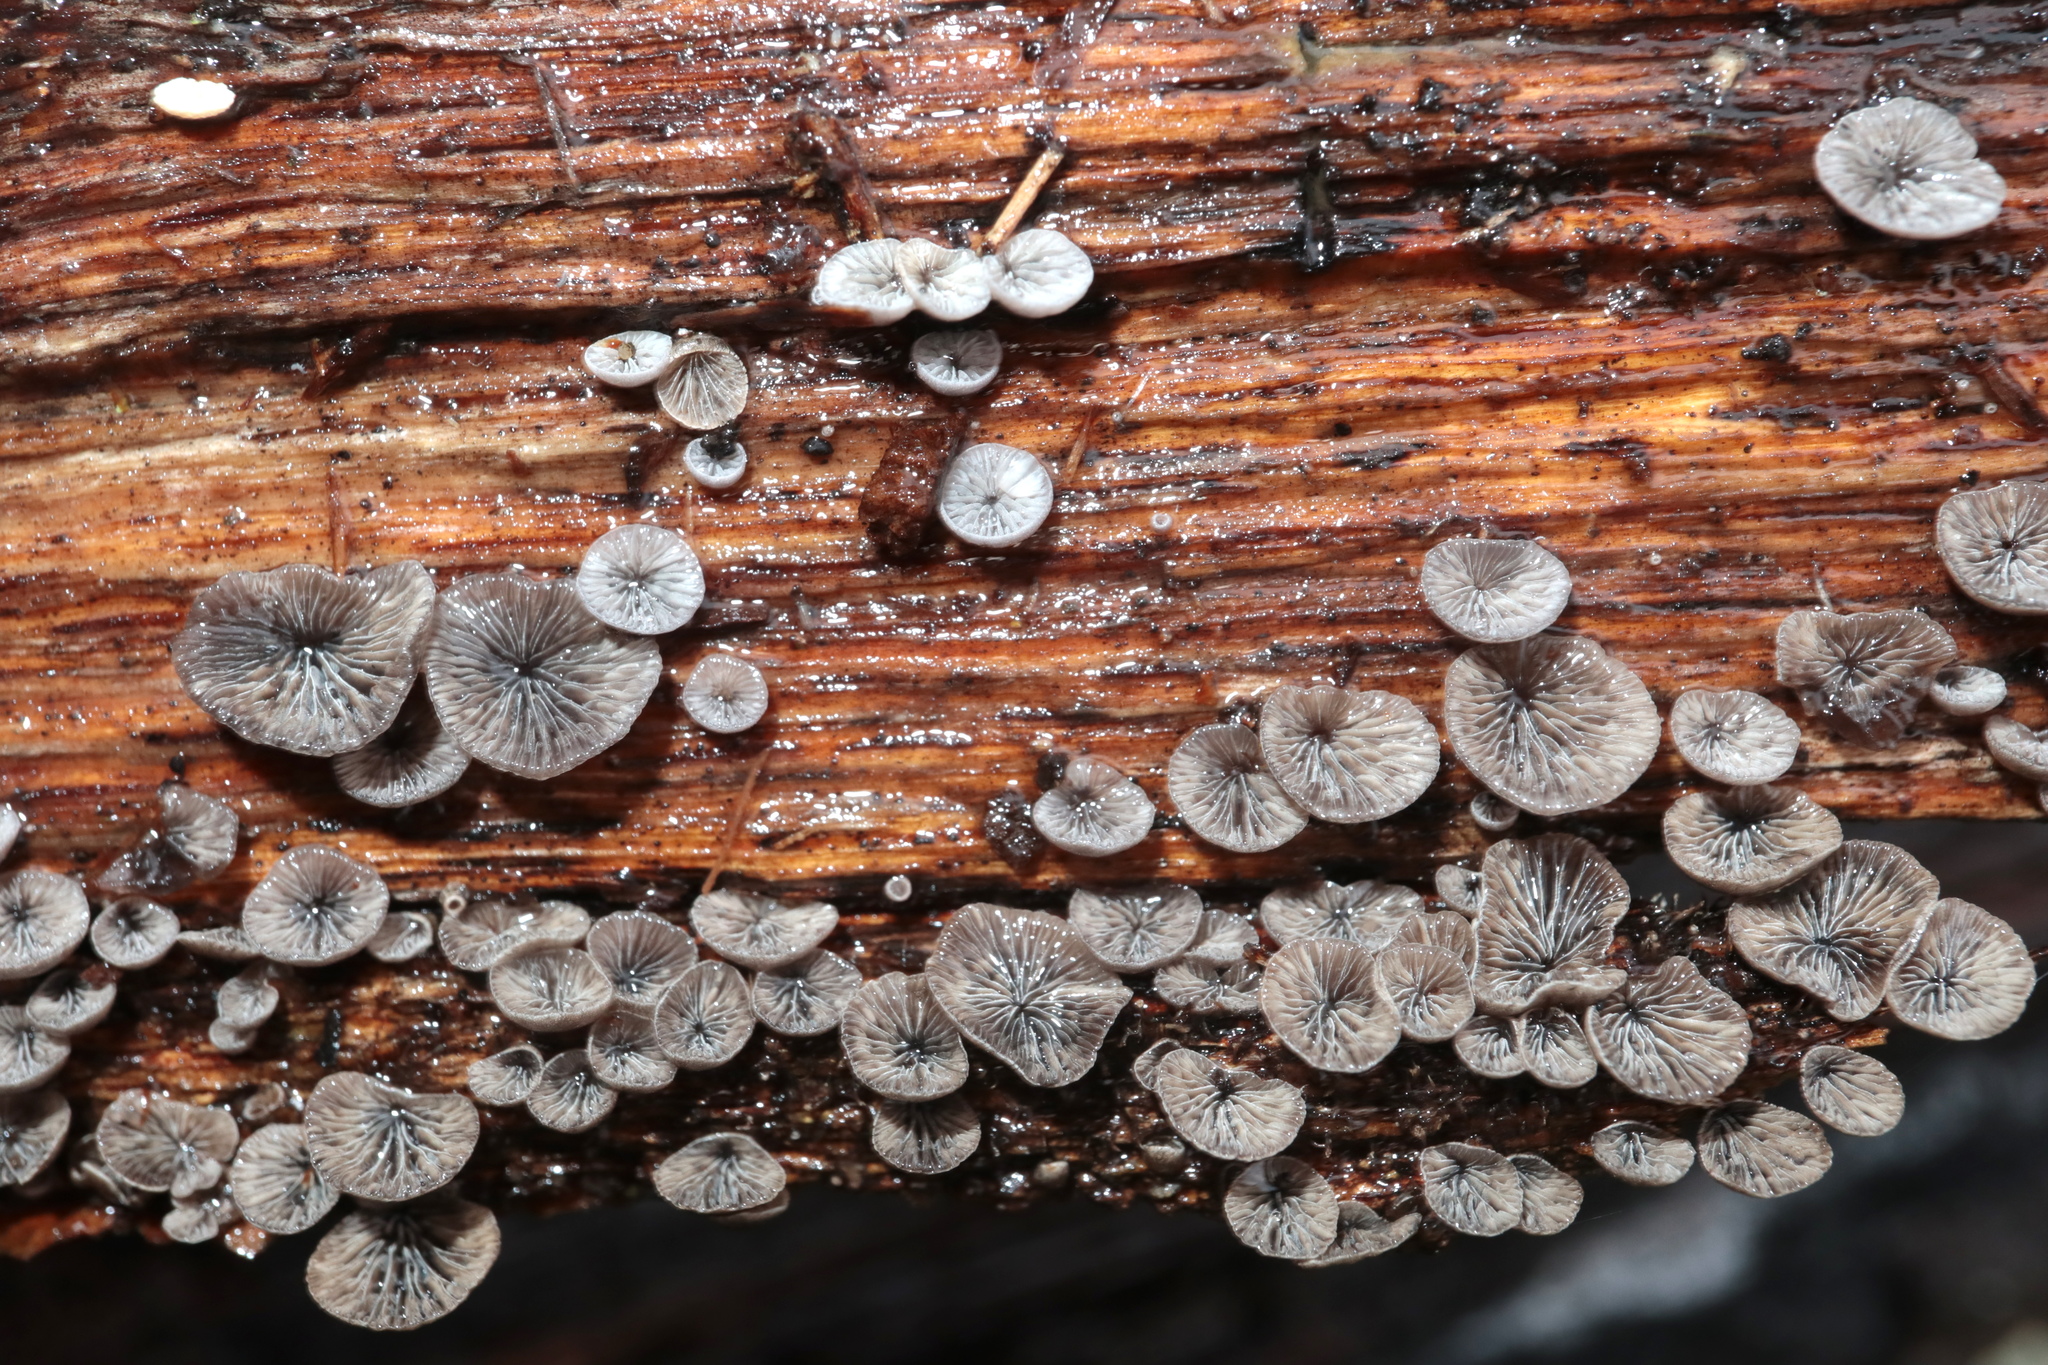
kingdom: Fungi
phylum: Basidiomycota
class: Agaricomycetes
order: Agaricales
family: Pleurotaceae
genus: Resupinatus
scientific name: Resupinatus applicatus
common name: Smoked oysterling
